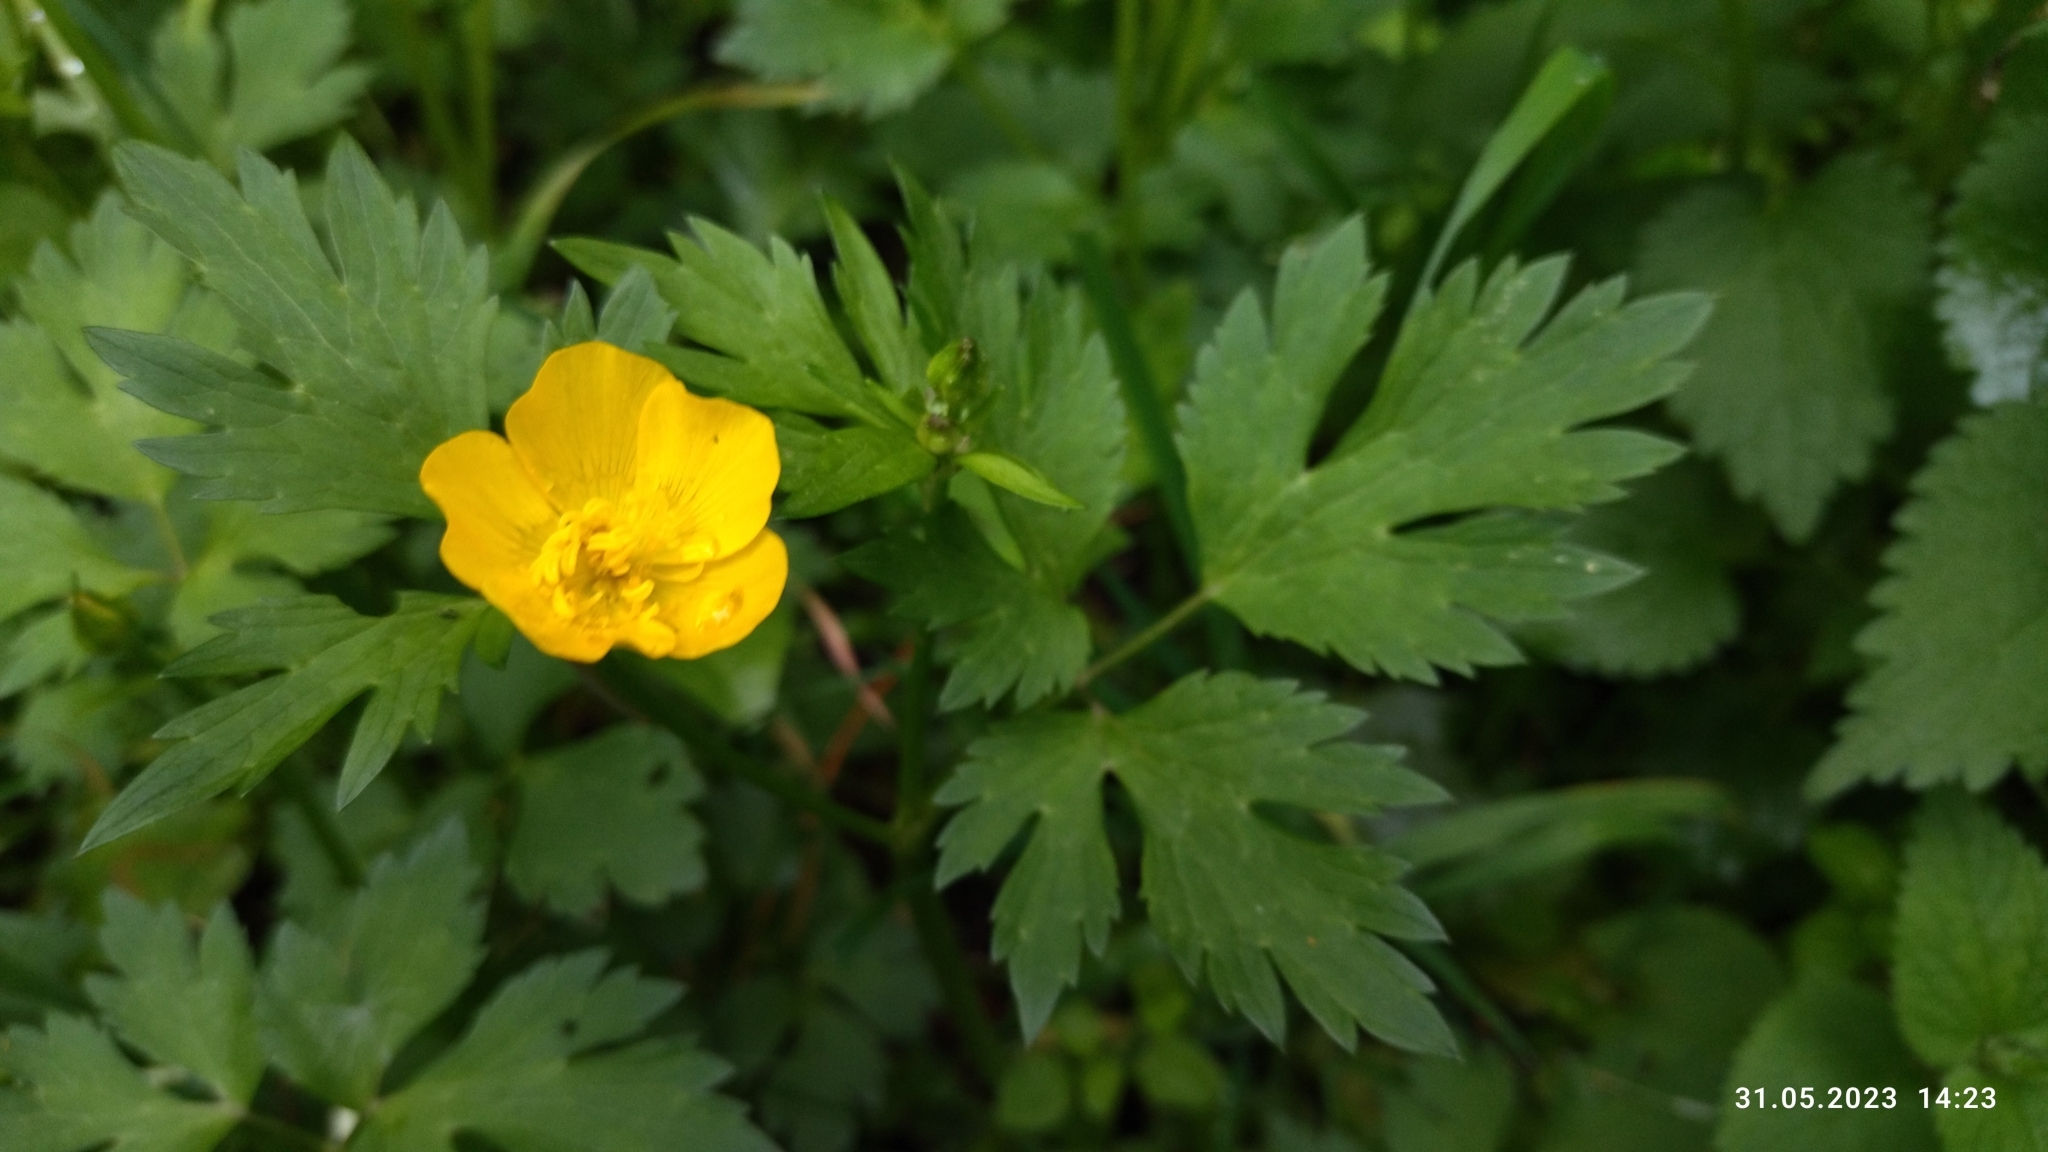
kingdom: Plantae
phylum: Tracheophyta
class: Magnoliopsida
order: Ranunculales
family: Ranunculaceae
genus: Ranunculus
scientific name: Ranunculus repens
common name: Creeping buttercup
